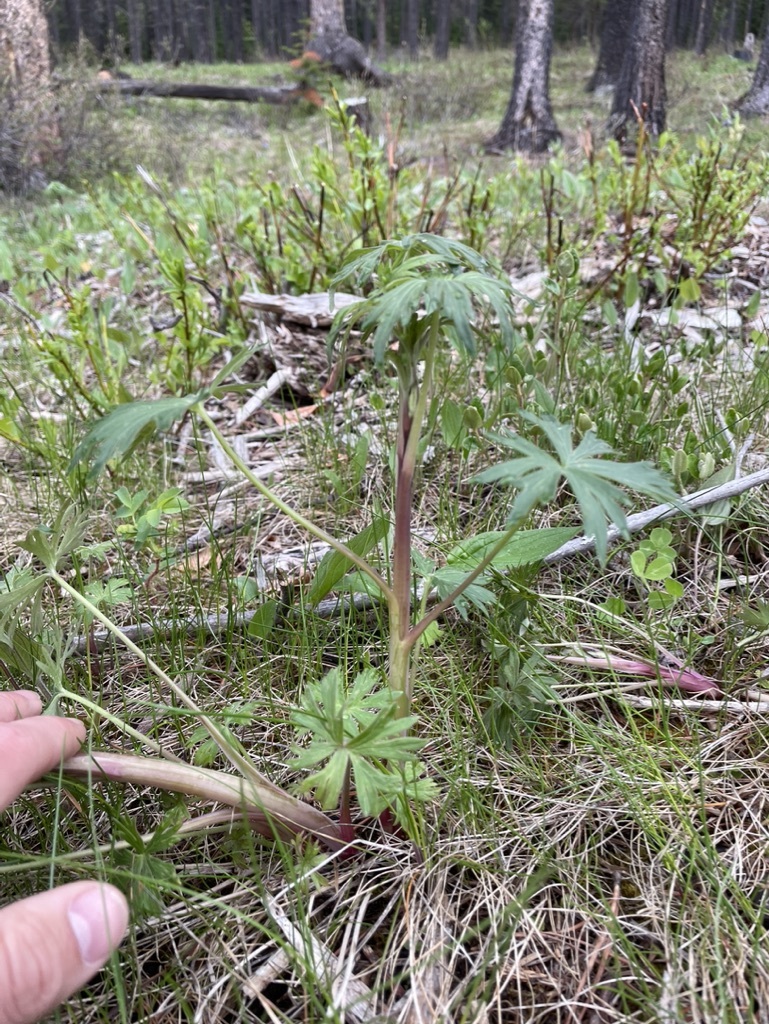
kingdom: Plantae
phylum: Tracheophyta
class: Magnoliopsida
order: Ranunculales
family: Ranunculaceae
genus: Delphinium
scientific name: Delphinium glaucum
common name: Brown's larkspur
